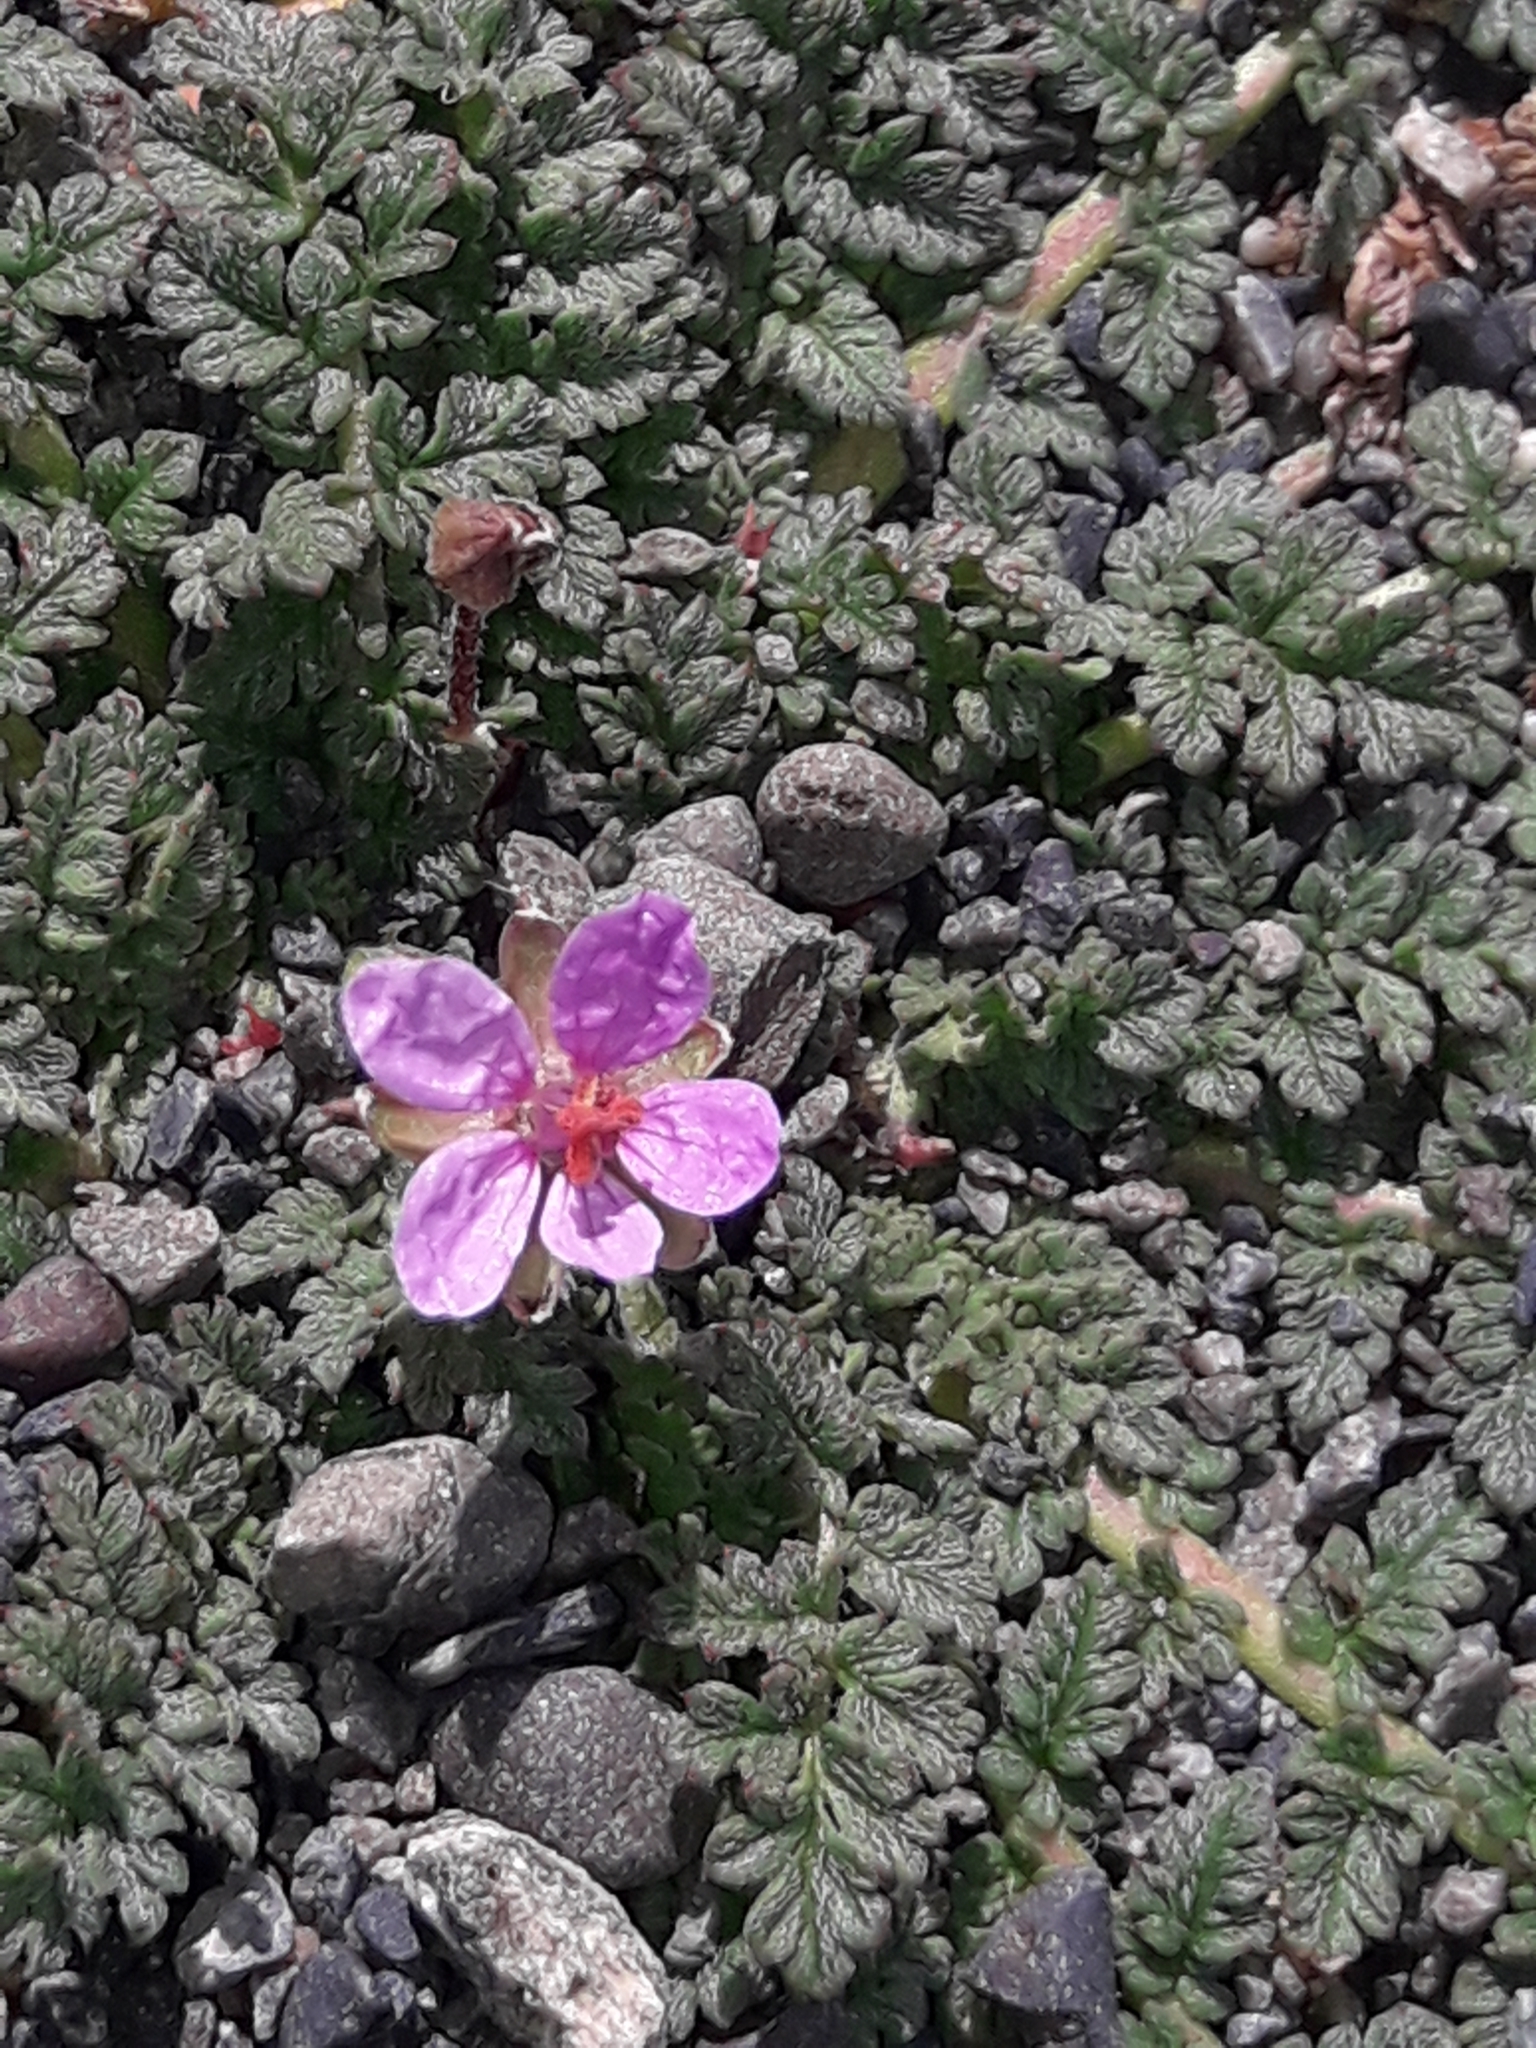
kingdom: Plantae
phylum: Tracheophyta
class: Magnoliopsida
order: Geraniales
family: Geraniaceae
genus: Erodium
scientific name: Erodium cicutarium
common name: Common stork's-bill
